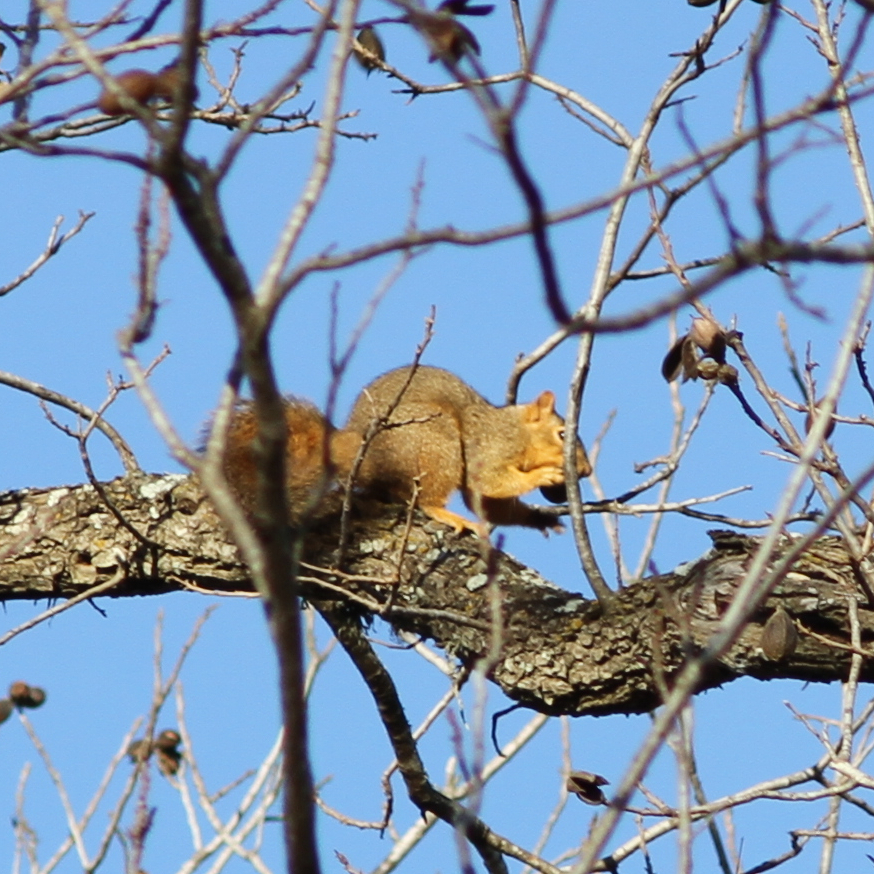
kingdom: Animalia
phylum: Chordata
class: Mammalia
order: Rodentia
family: Sciuridae
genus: Sciurus
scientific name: Sciurus niger
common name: Fox squirrel
